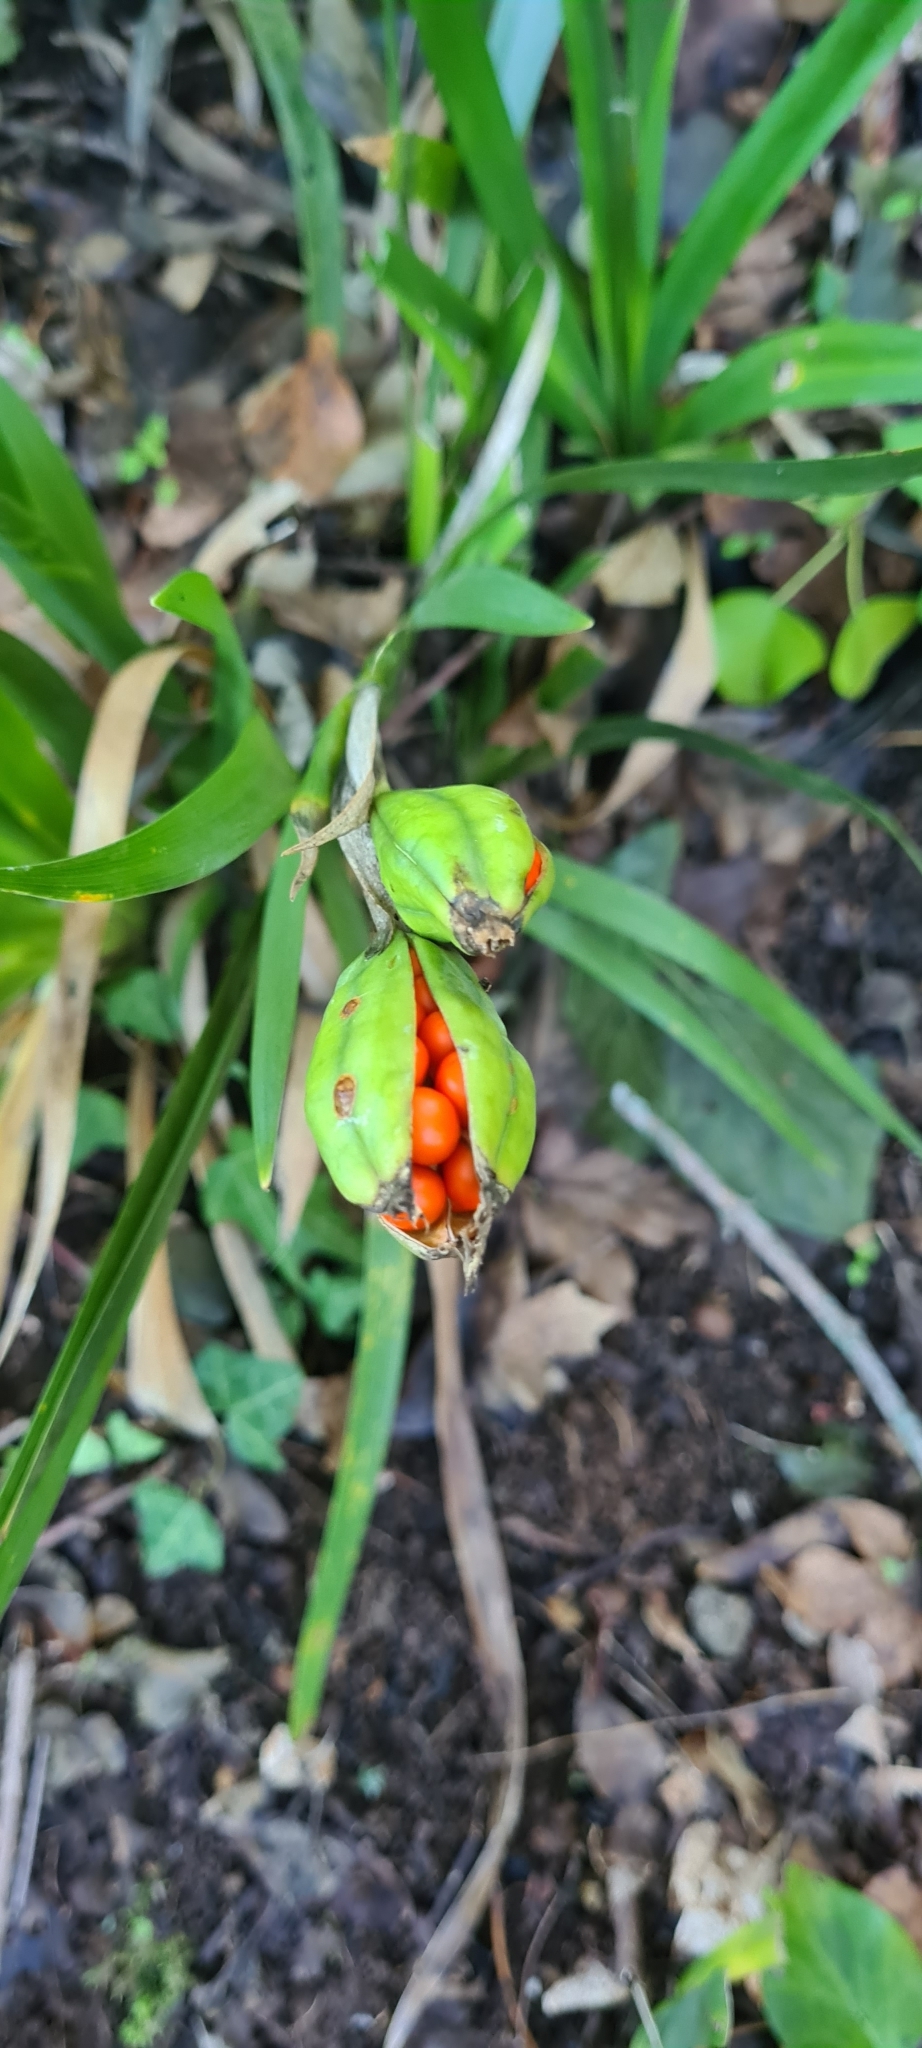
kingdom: Plantae
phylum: Tracheophyta
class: Liliopsida
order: Asparagales
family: Iridaceae
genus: Iris
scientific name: Iris foetidissima
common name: Stinking iris
